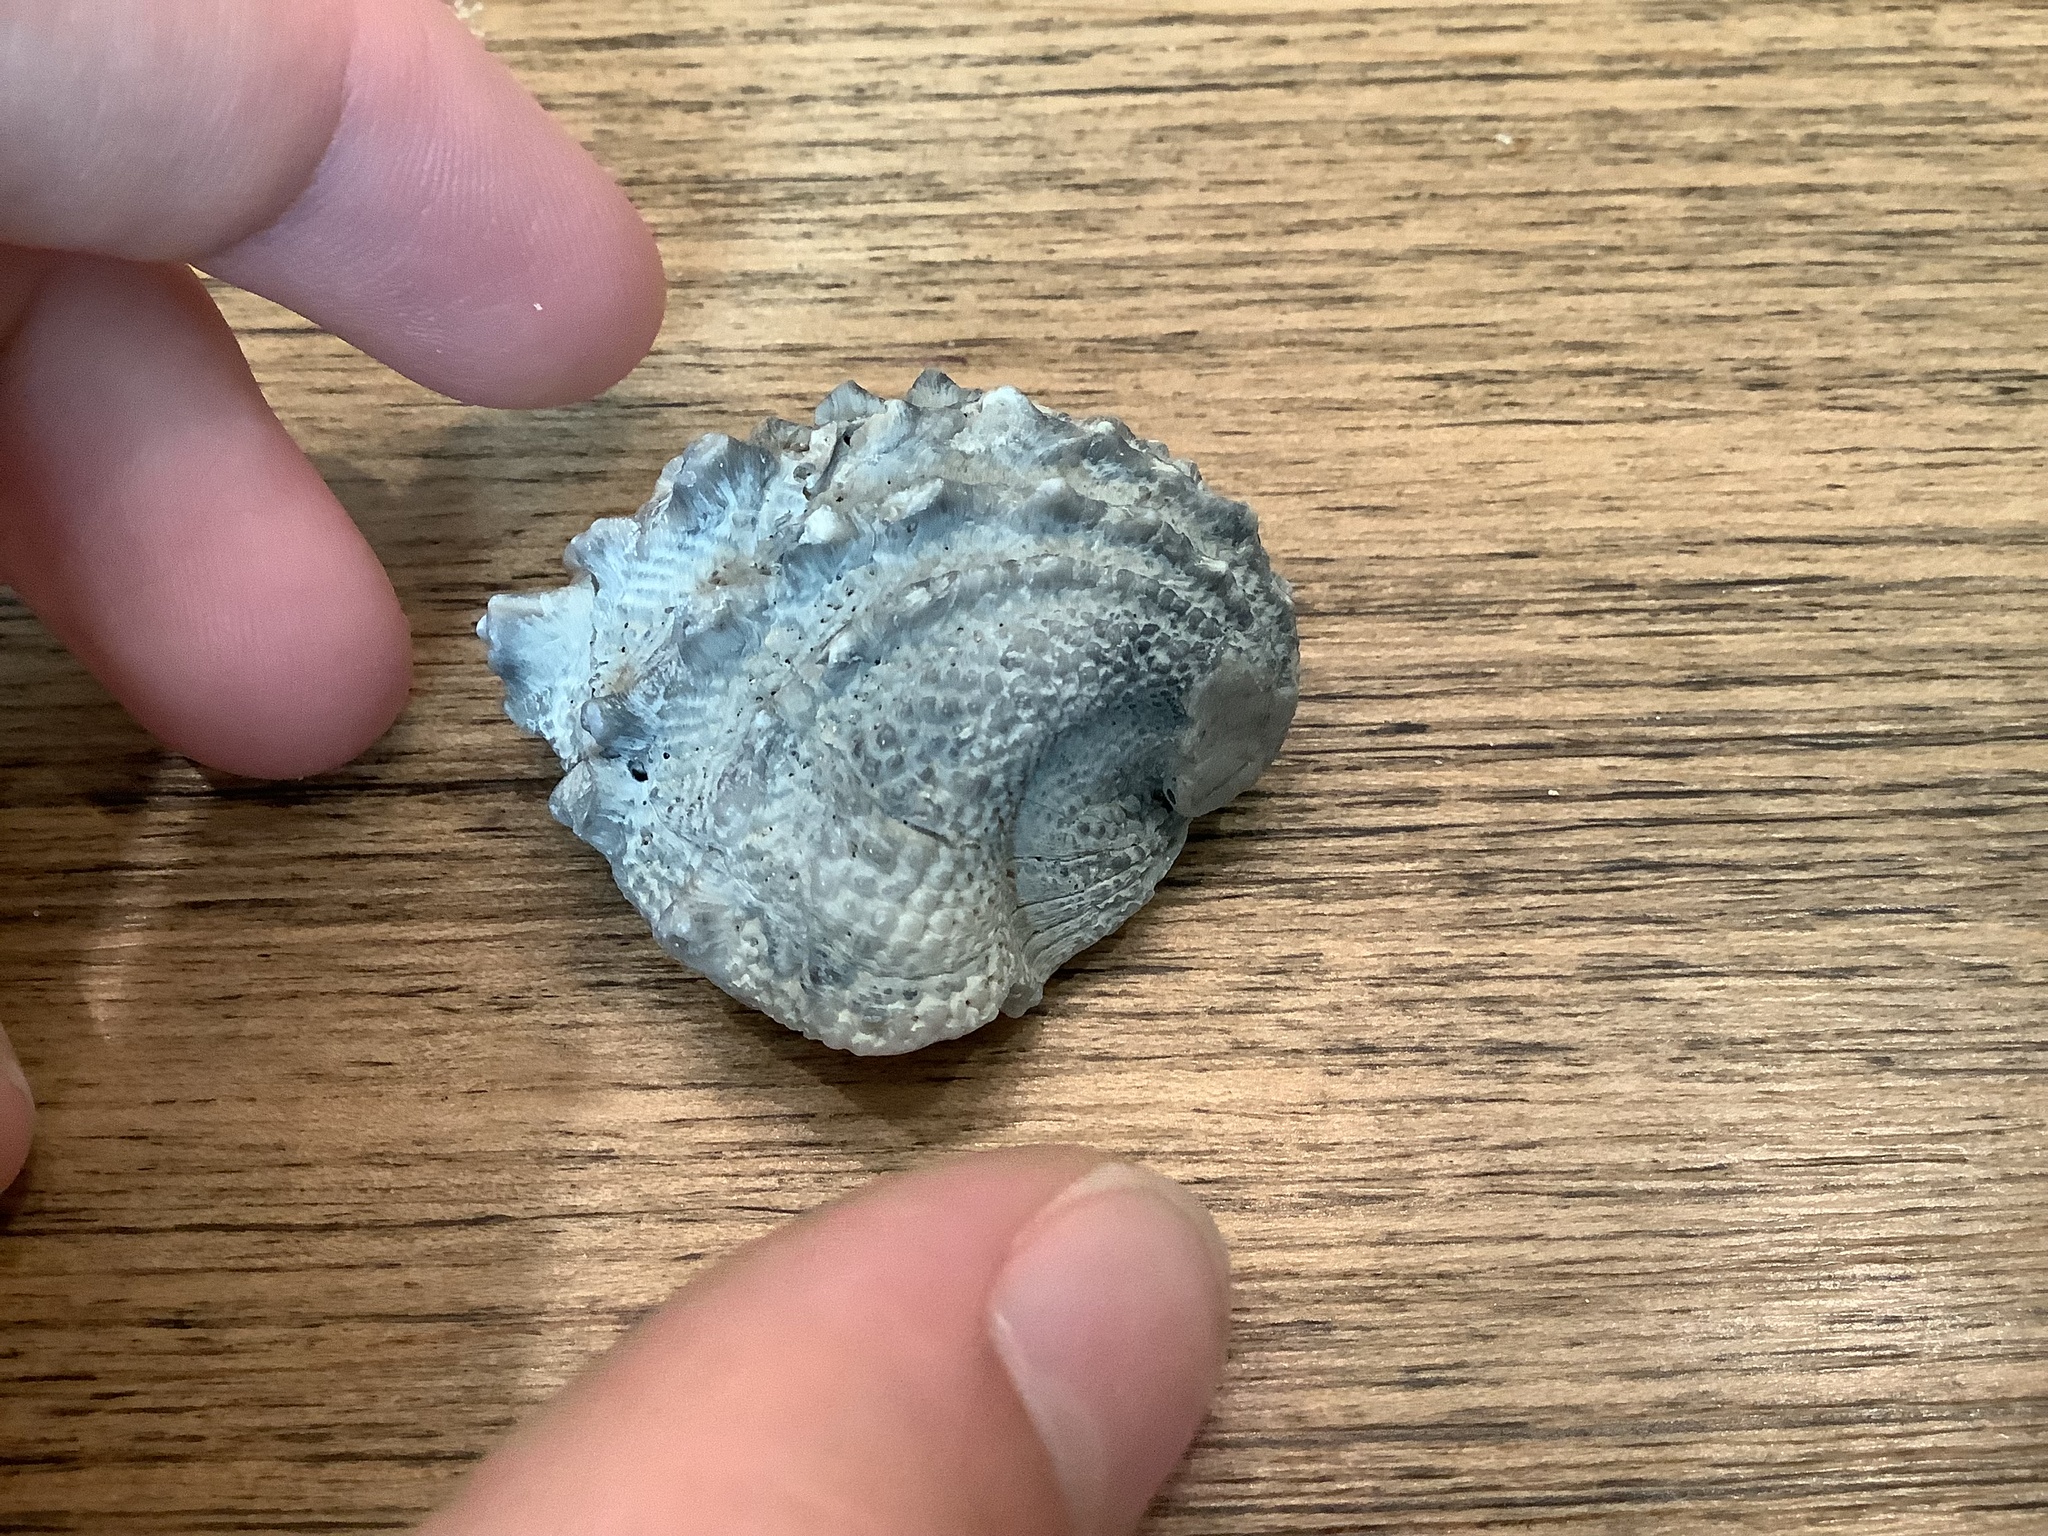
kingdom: Animalia
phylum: Mollusca
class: Bivalvia
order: Venerida
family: Chamidae
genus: Arcinella
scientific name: Arcinella cornuta
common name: Florida spiny jewel box
